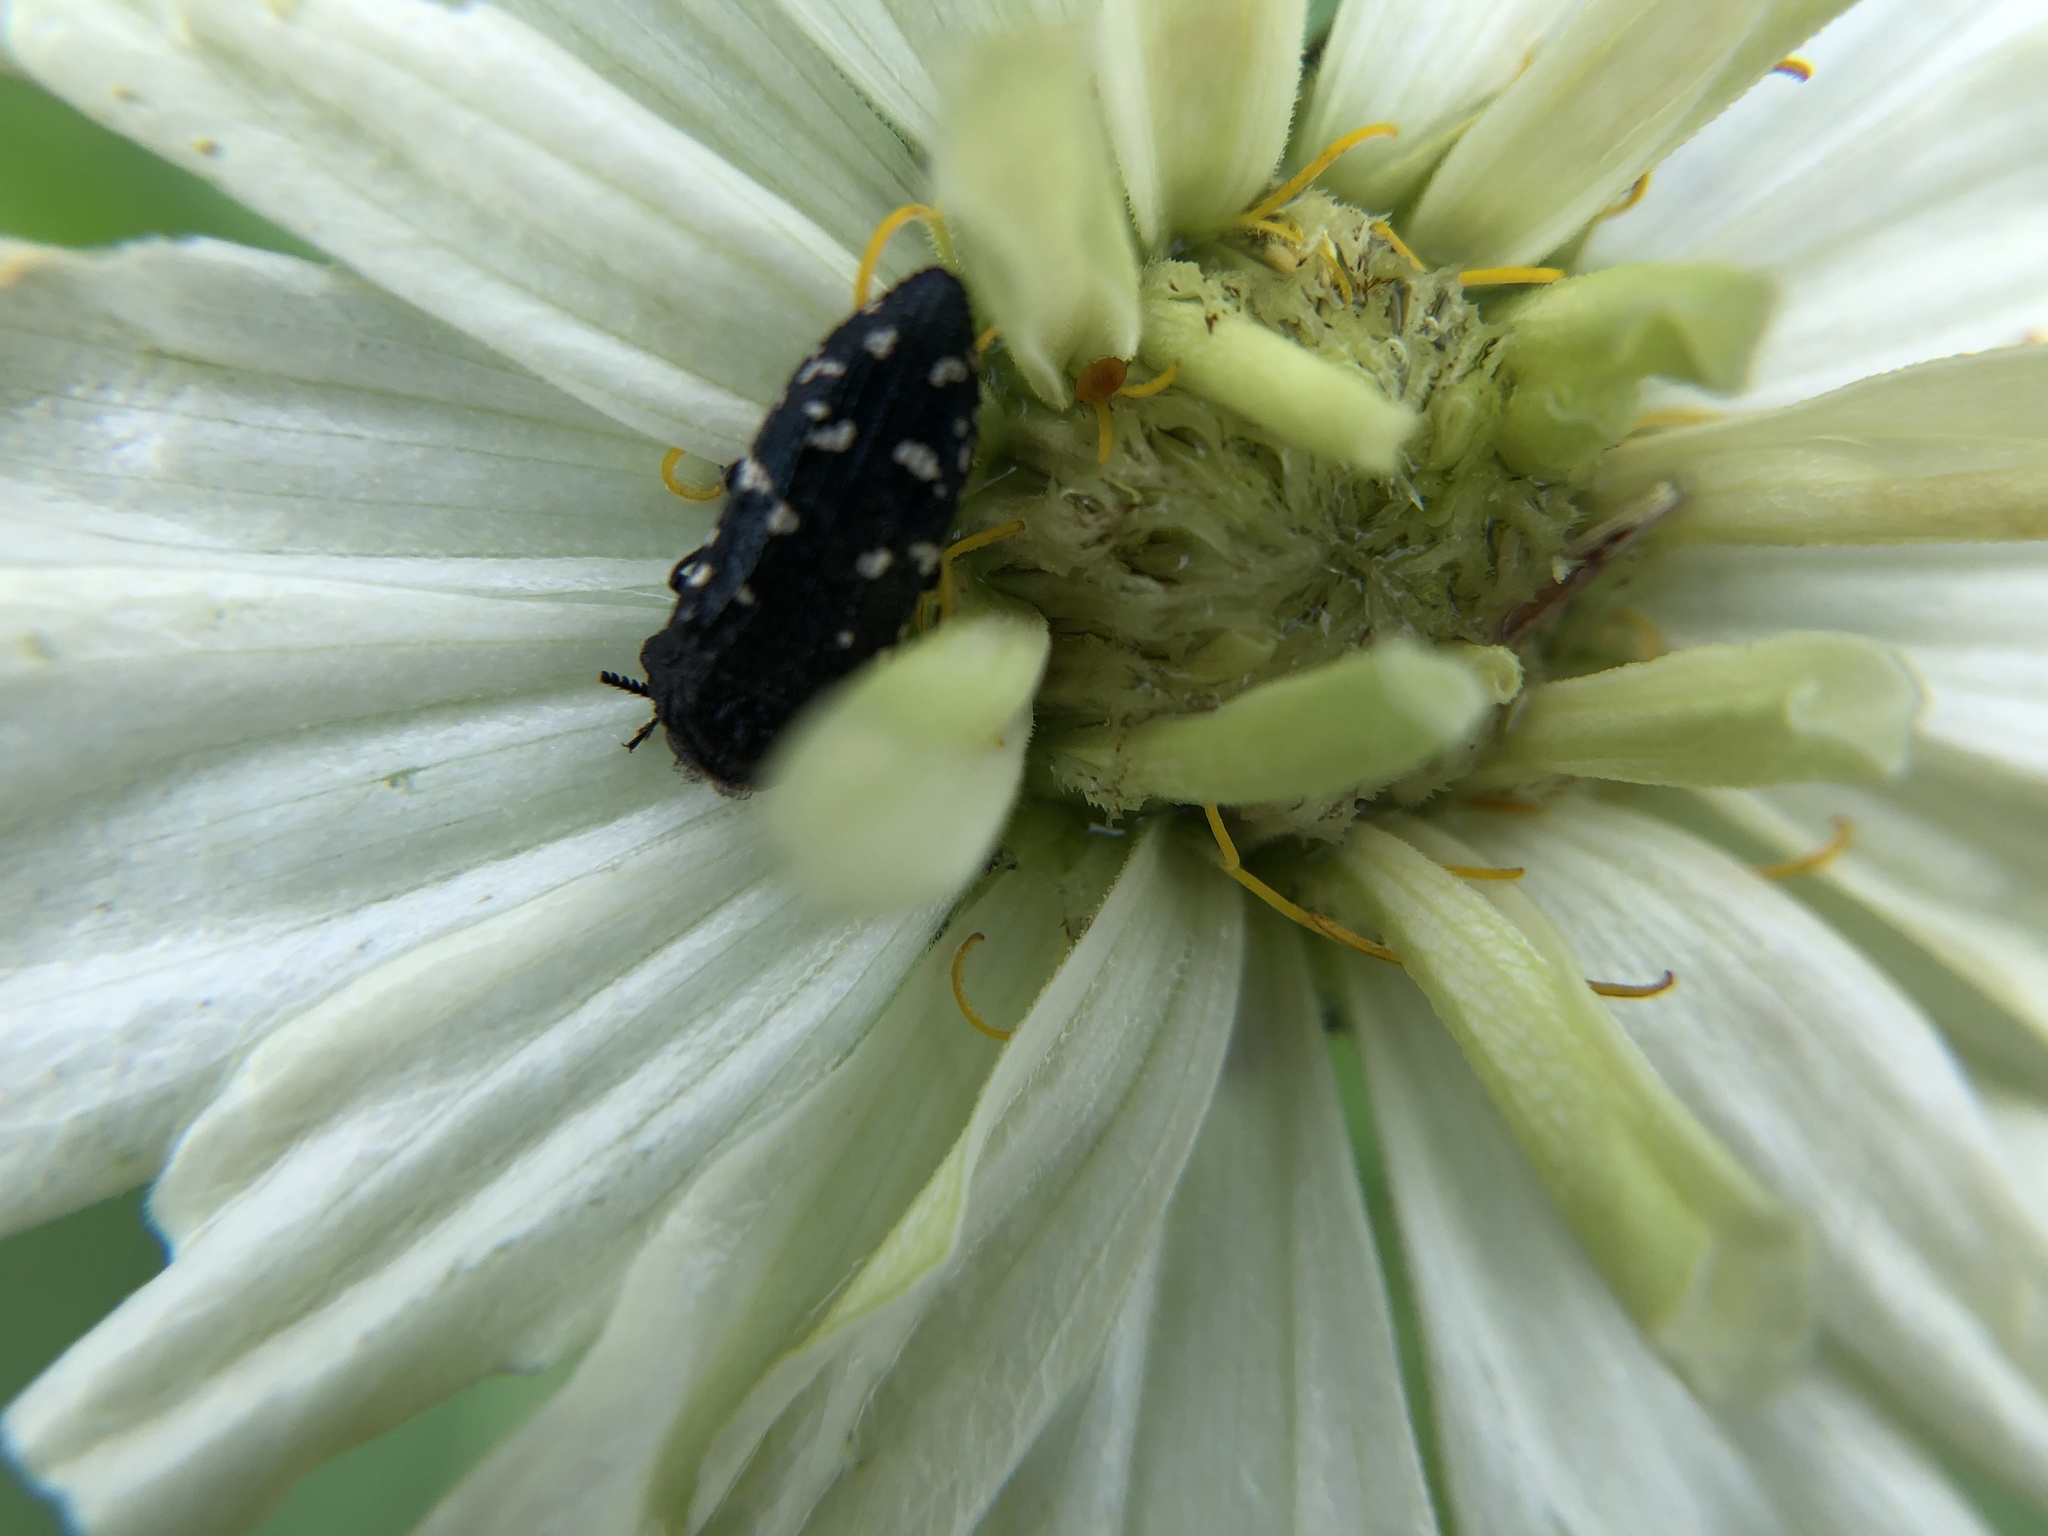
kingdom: Animalia
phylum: Arthropoda
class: Insecta
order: Coleoptera
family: Buprestidae
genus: Acmaeodera
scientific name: Acmaeodera ornatoides
